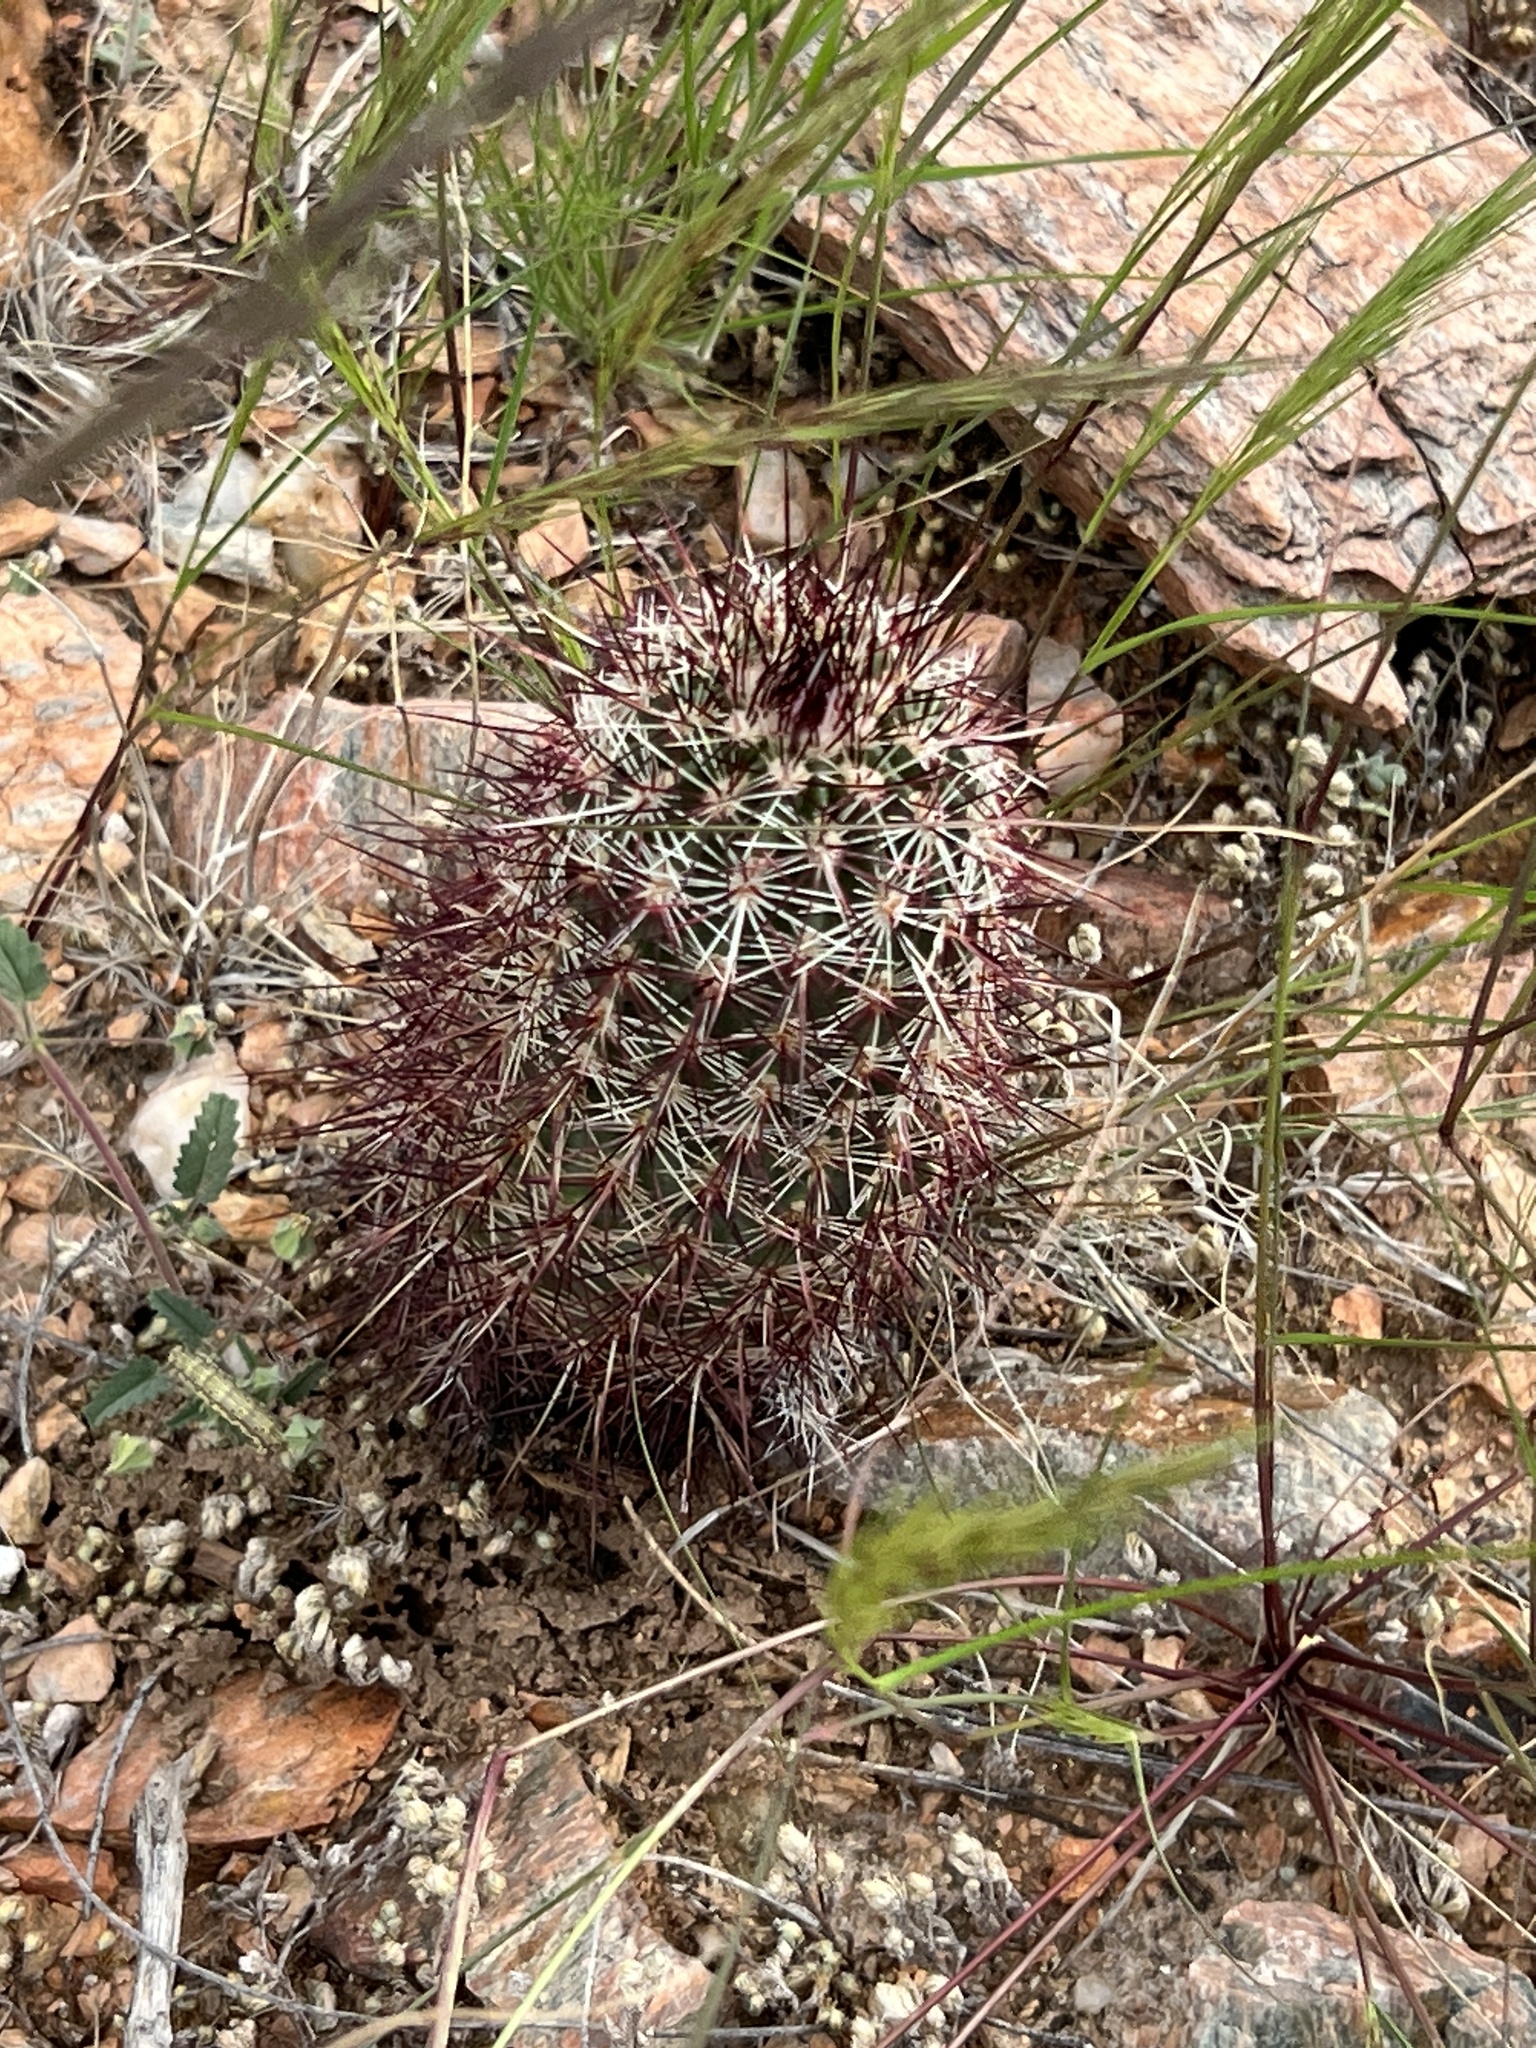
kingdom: Plantae
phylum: Tracheophyta
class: Magnoliopsida
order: Caryophyllales
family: Cactaceae
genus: Echinocereus
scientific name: Echinocereus viridiflorus
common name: Nylon hedgehog cactus
